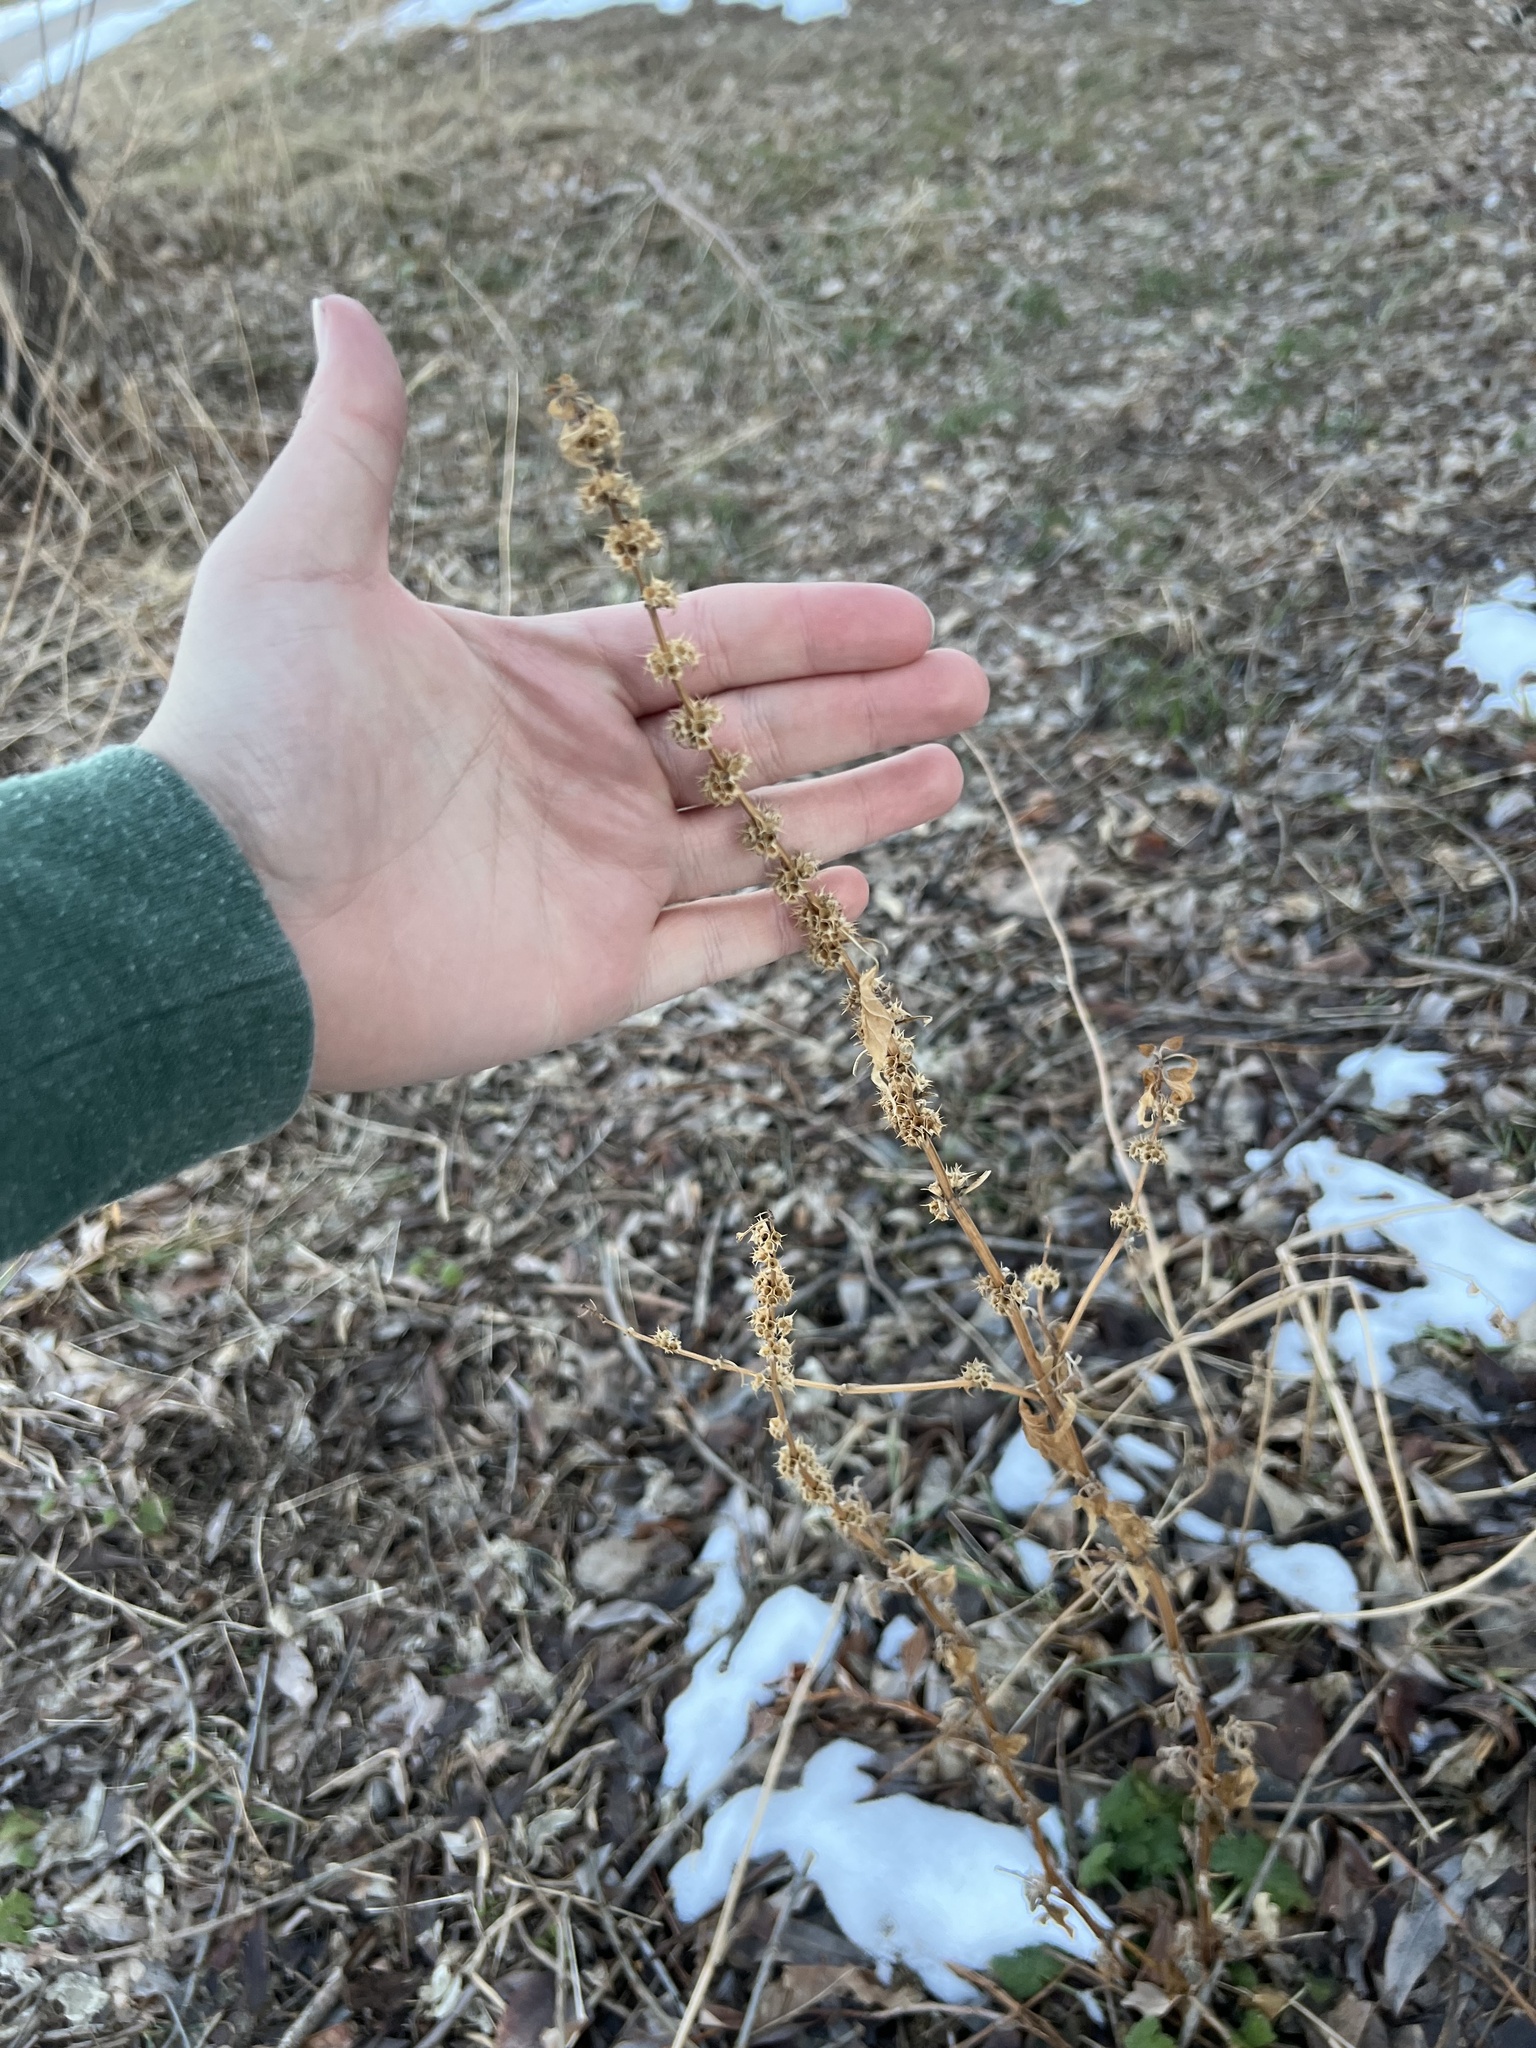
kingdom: Plantae
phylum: Tracheophyta
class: Magnoliopsida
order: Lamiales
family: Lamiaceae
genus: Leonurus
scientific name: Leonurus cardiaca
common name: Motherwort
